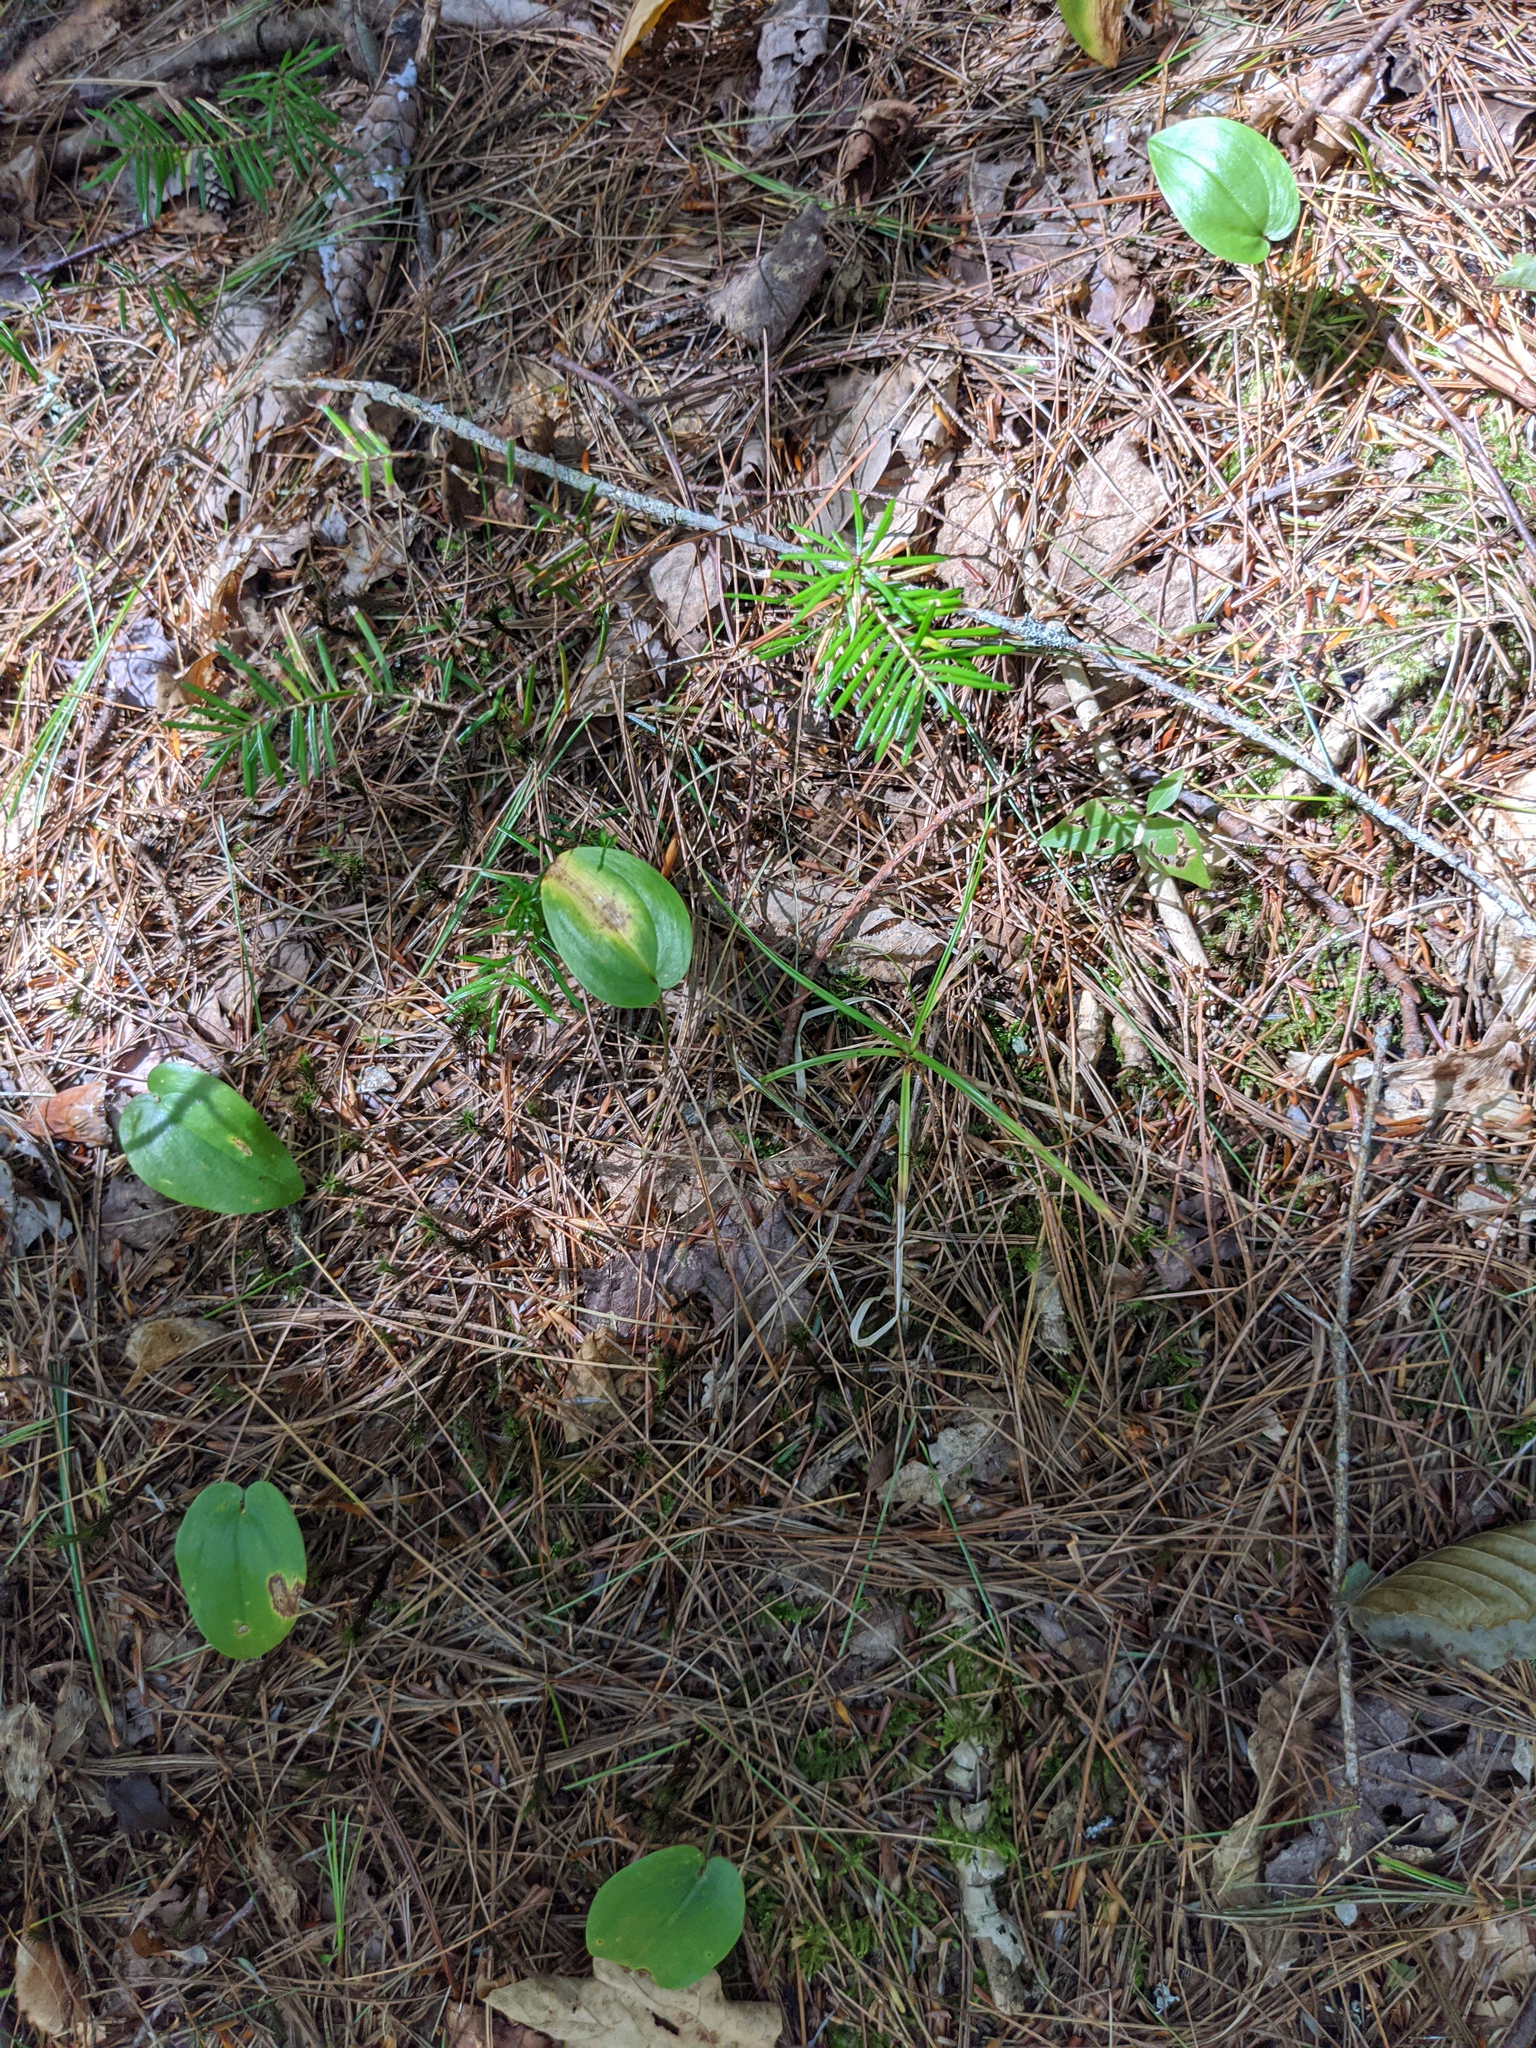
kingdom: Plantae
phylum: Tracheophyta
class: Liliopsida
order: Asparagales
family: Asparagaceae
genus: Maianthemum
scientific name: Maianthemum canadense
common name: False lily-of-the-valley
